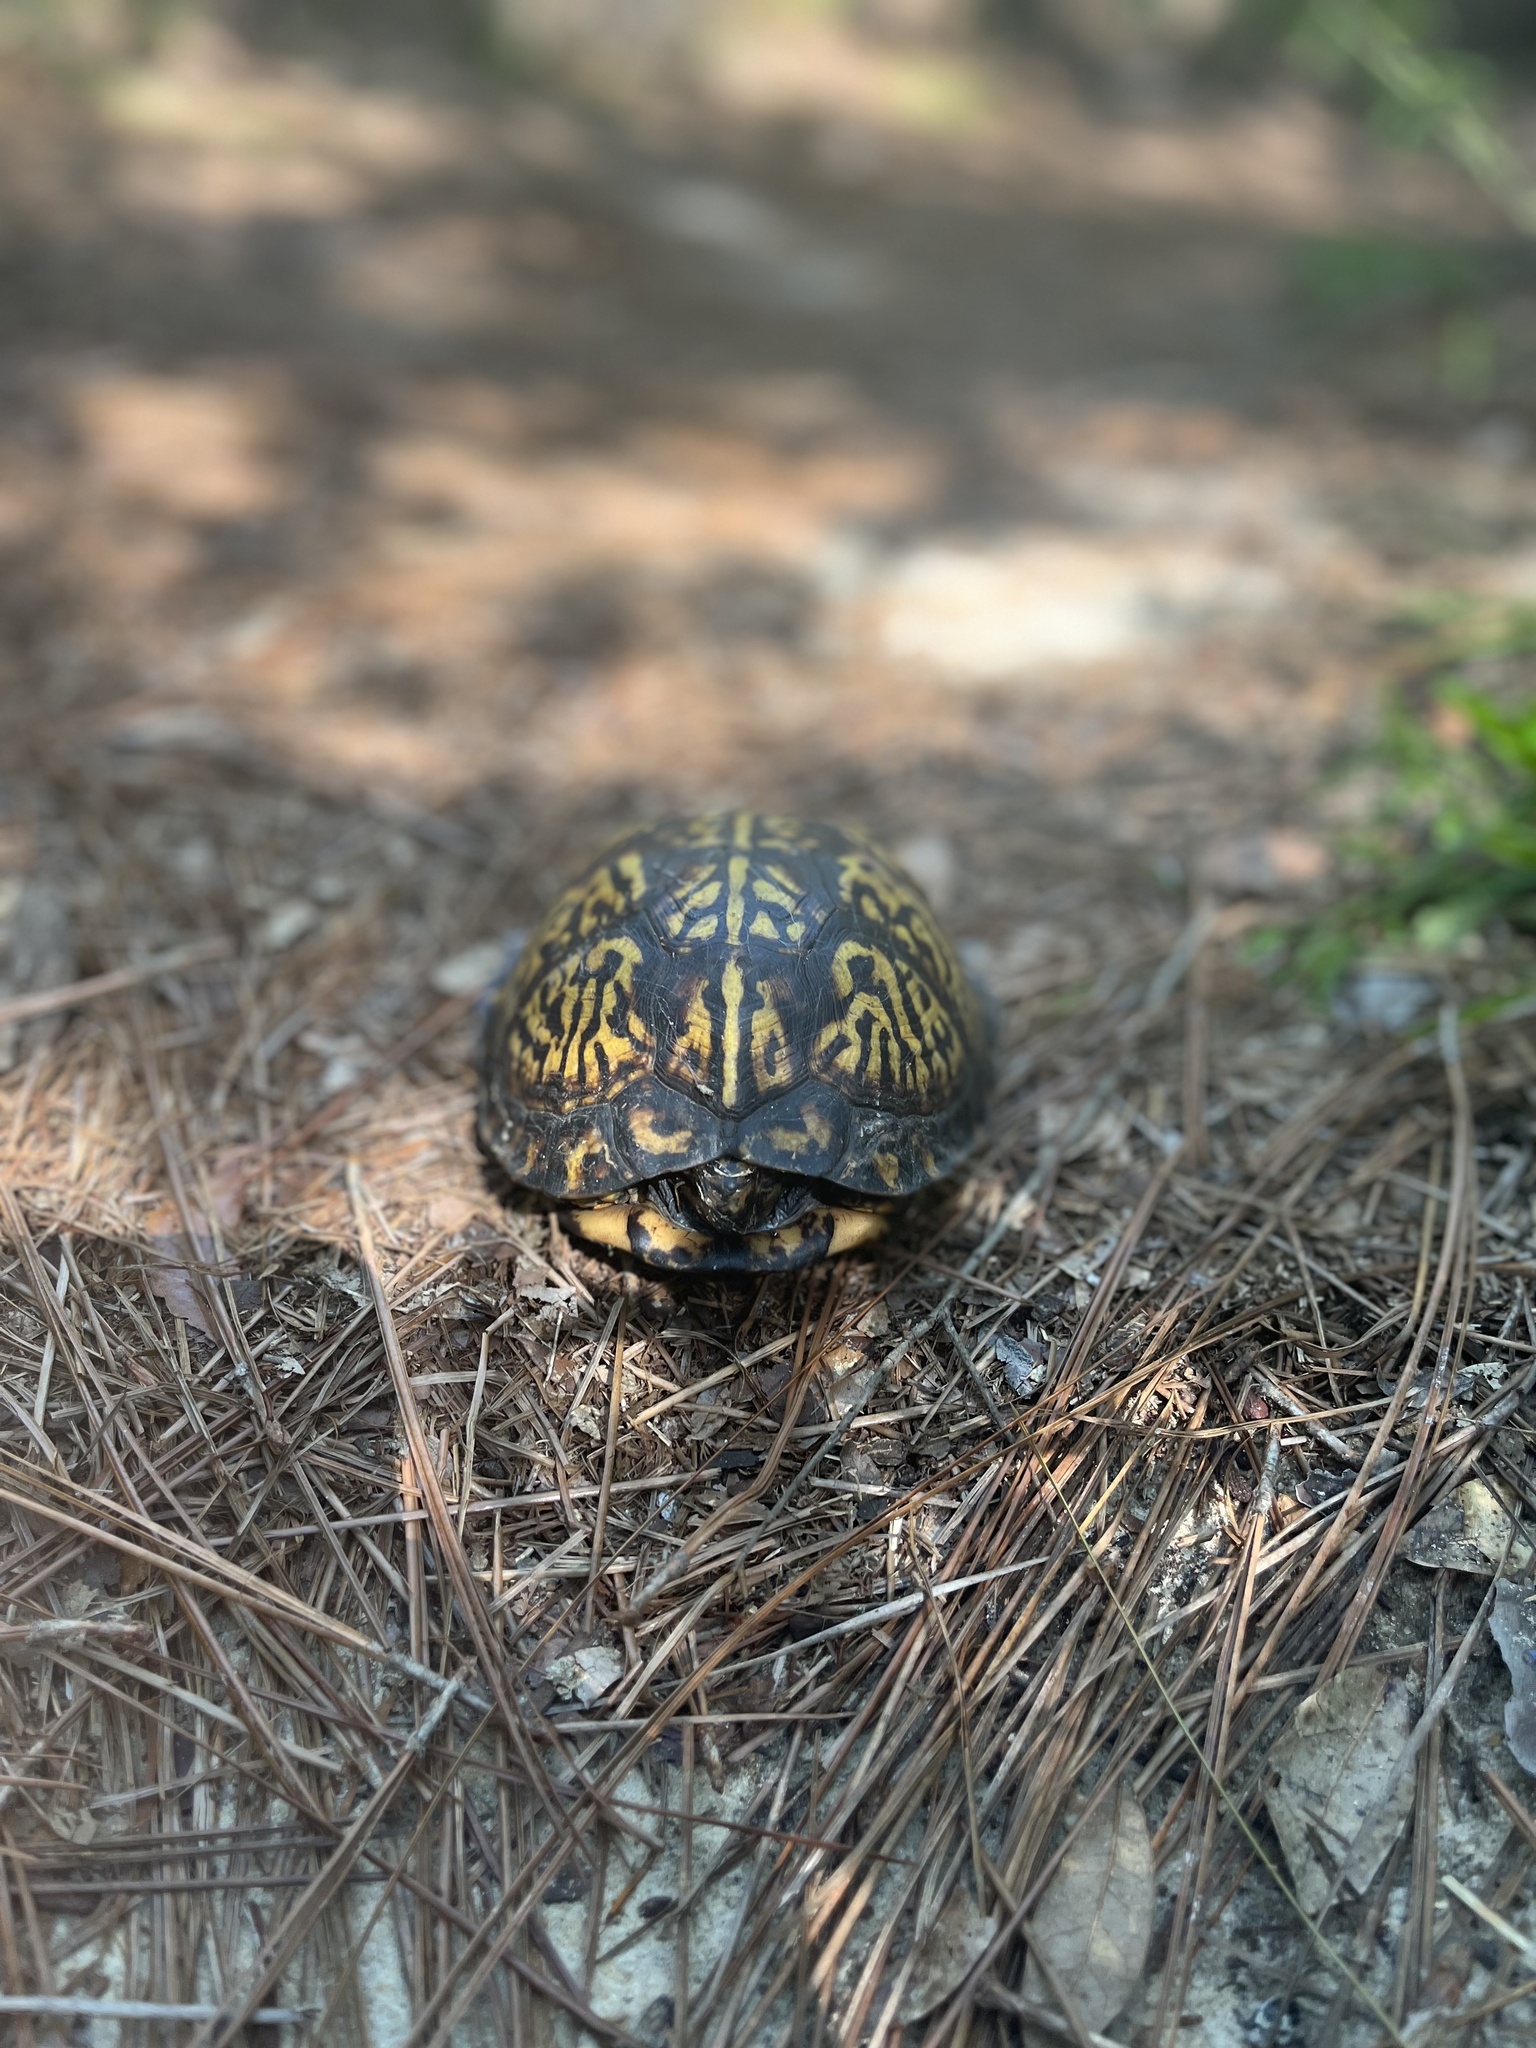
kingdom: Animalia
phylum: Chordata
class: Testudines
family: Emydidae
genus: Terrapene
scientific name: Terrapene carolina
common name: Common box turtle
